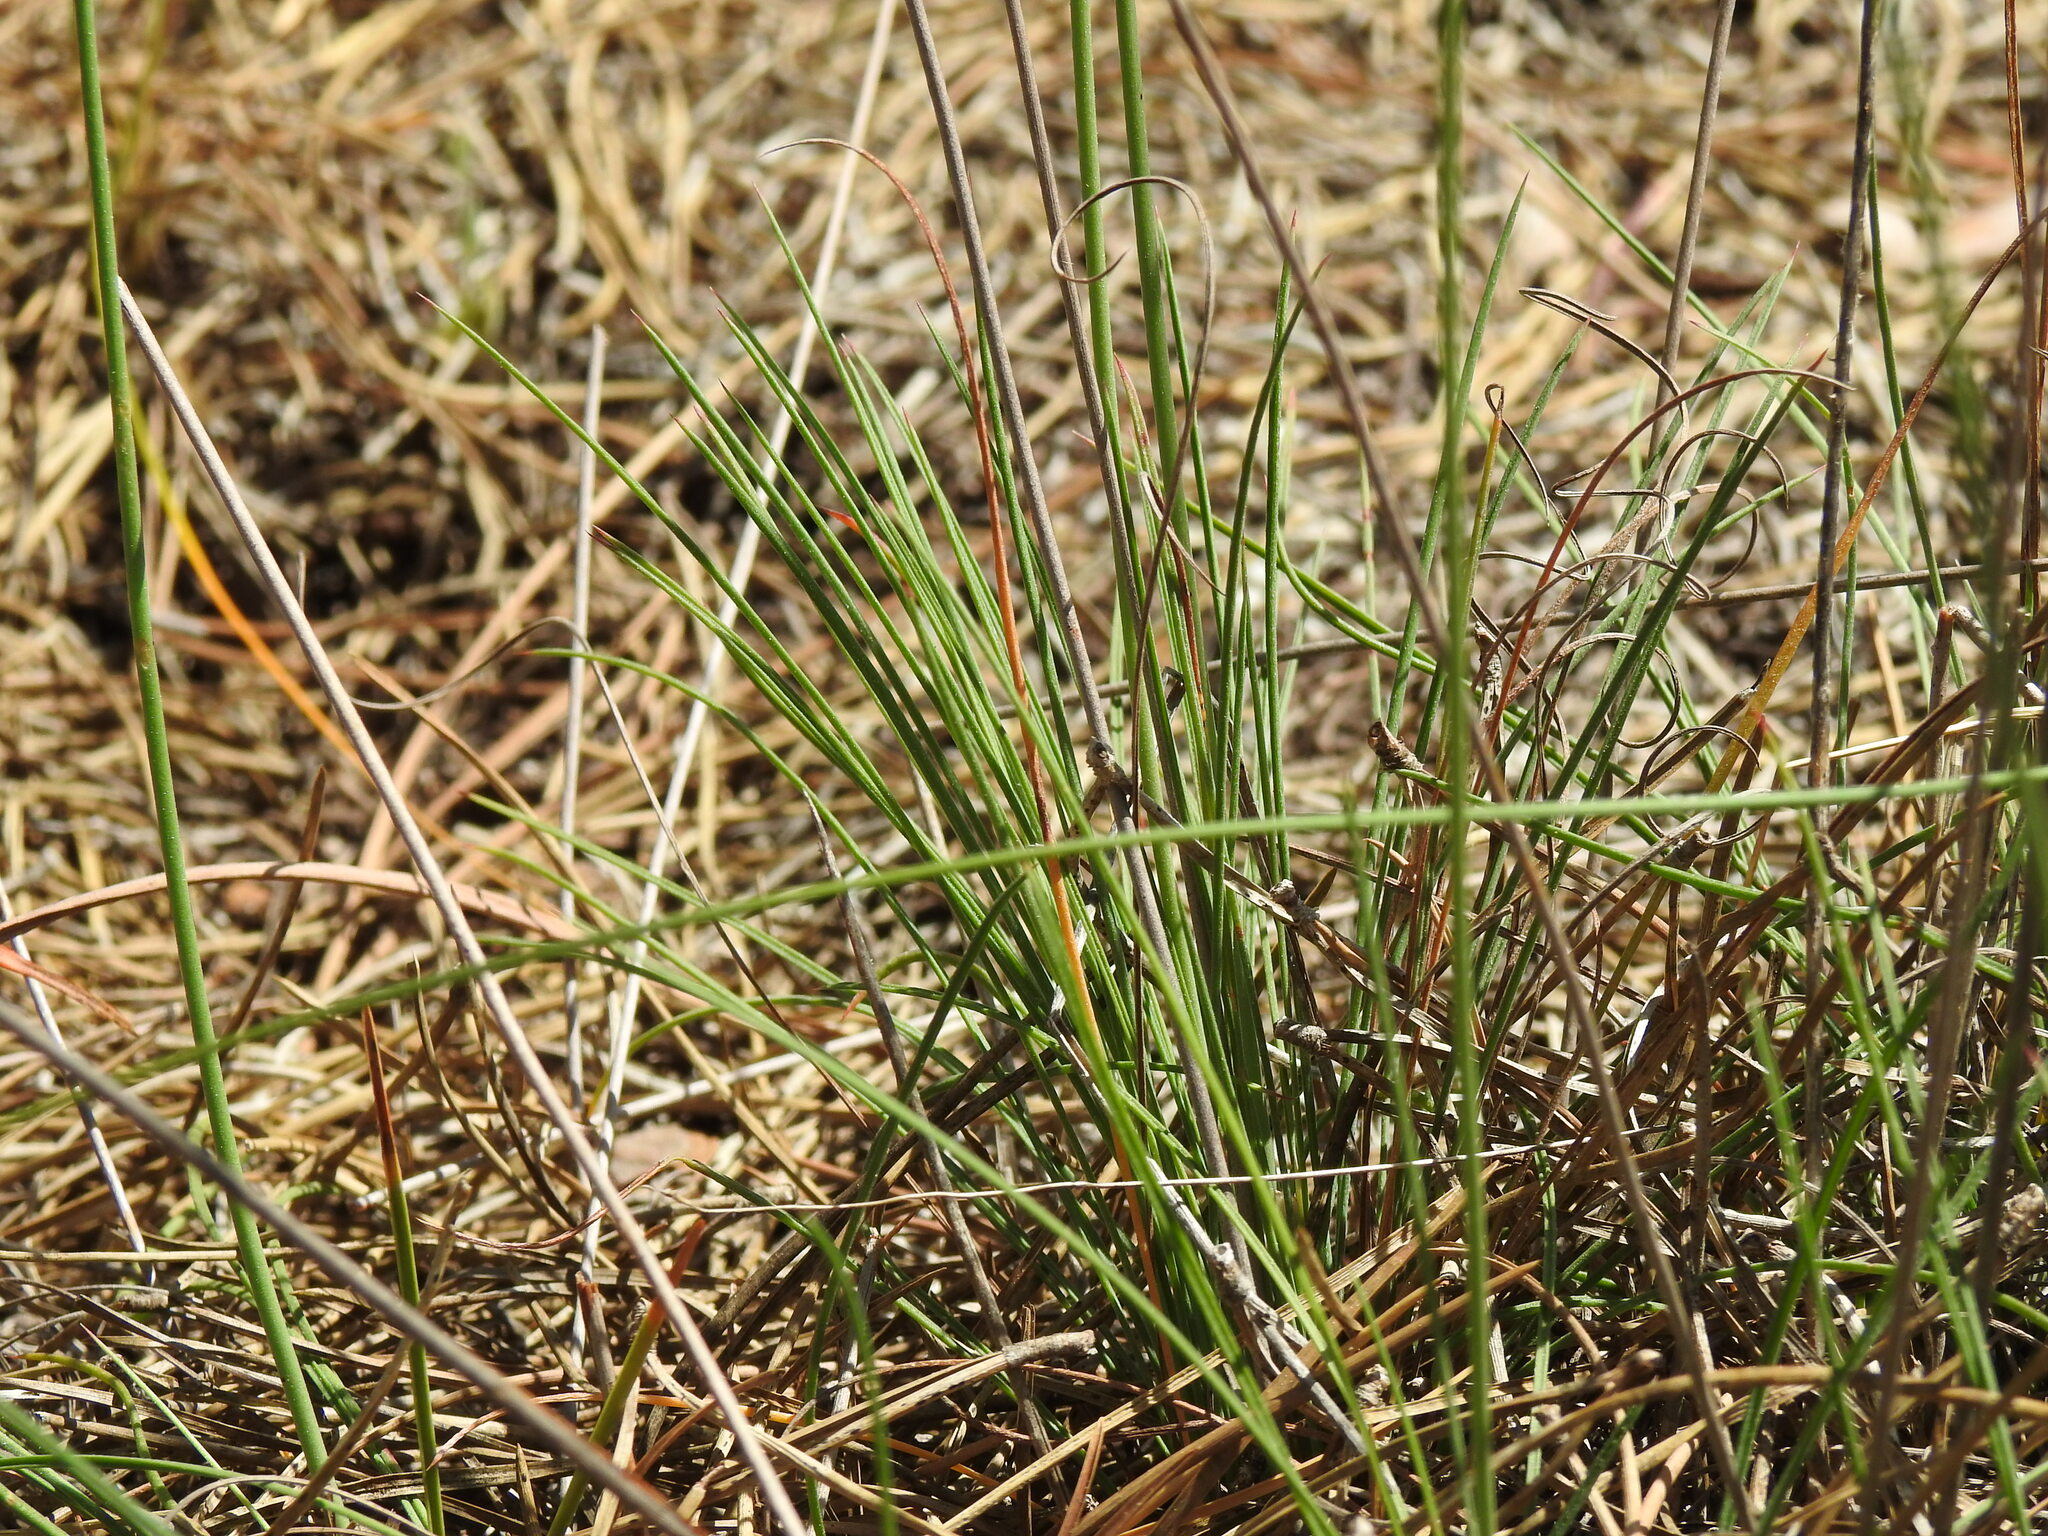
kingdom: Plantae
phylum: Tracheophyta
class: Magnoliopsida
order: Caryophyllales
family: Plumbaginaceae
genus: Armeria
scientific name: Armeria macrophylla
